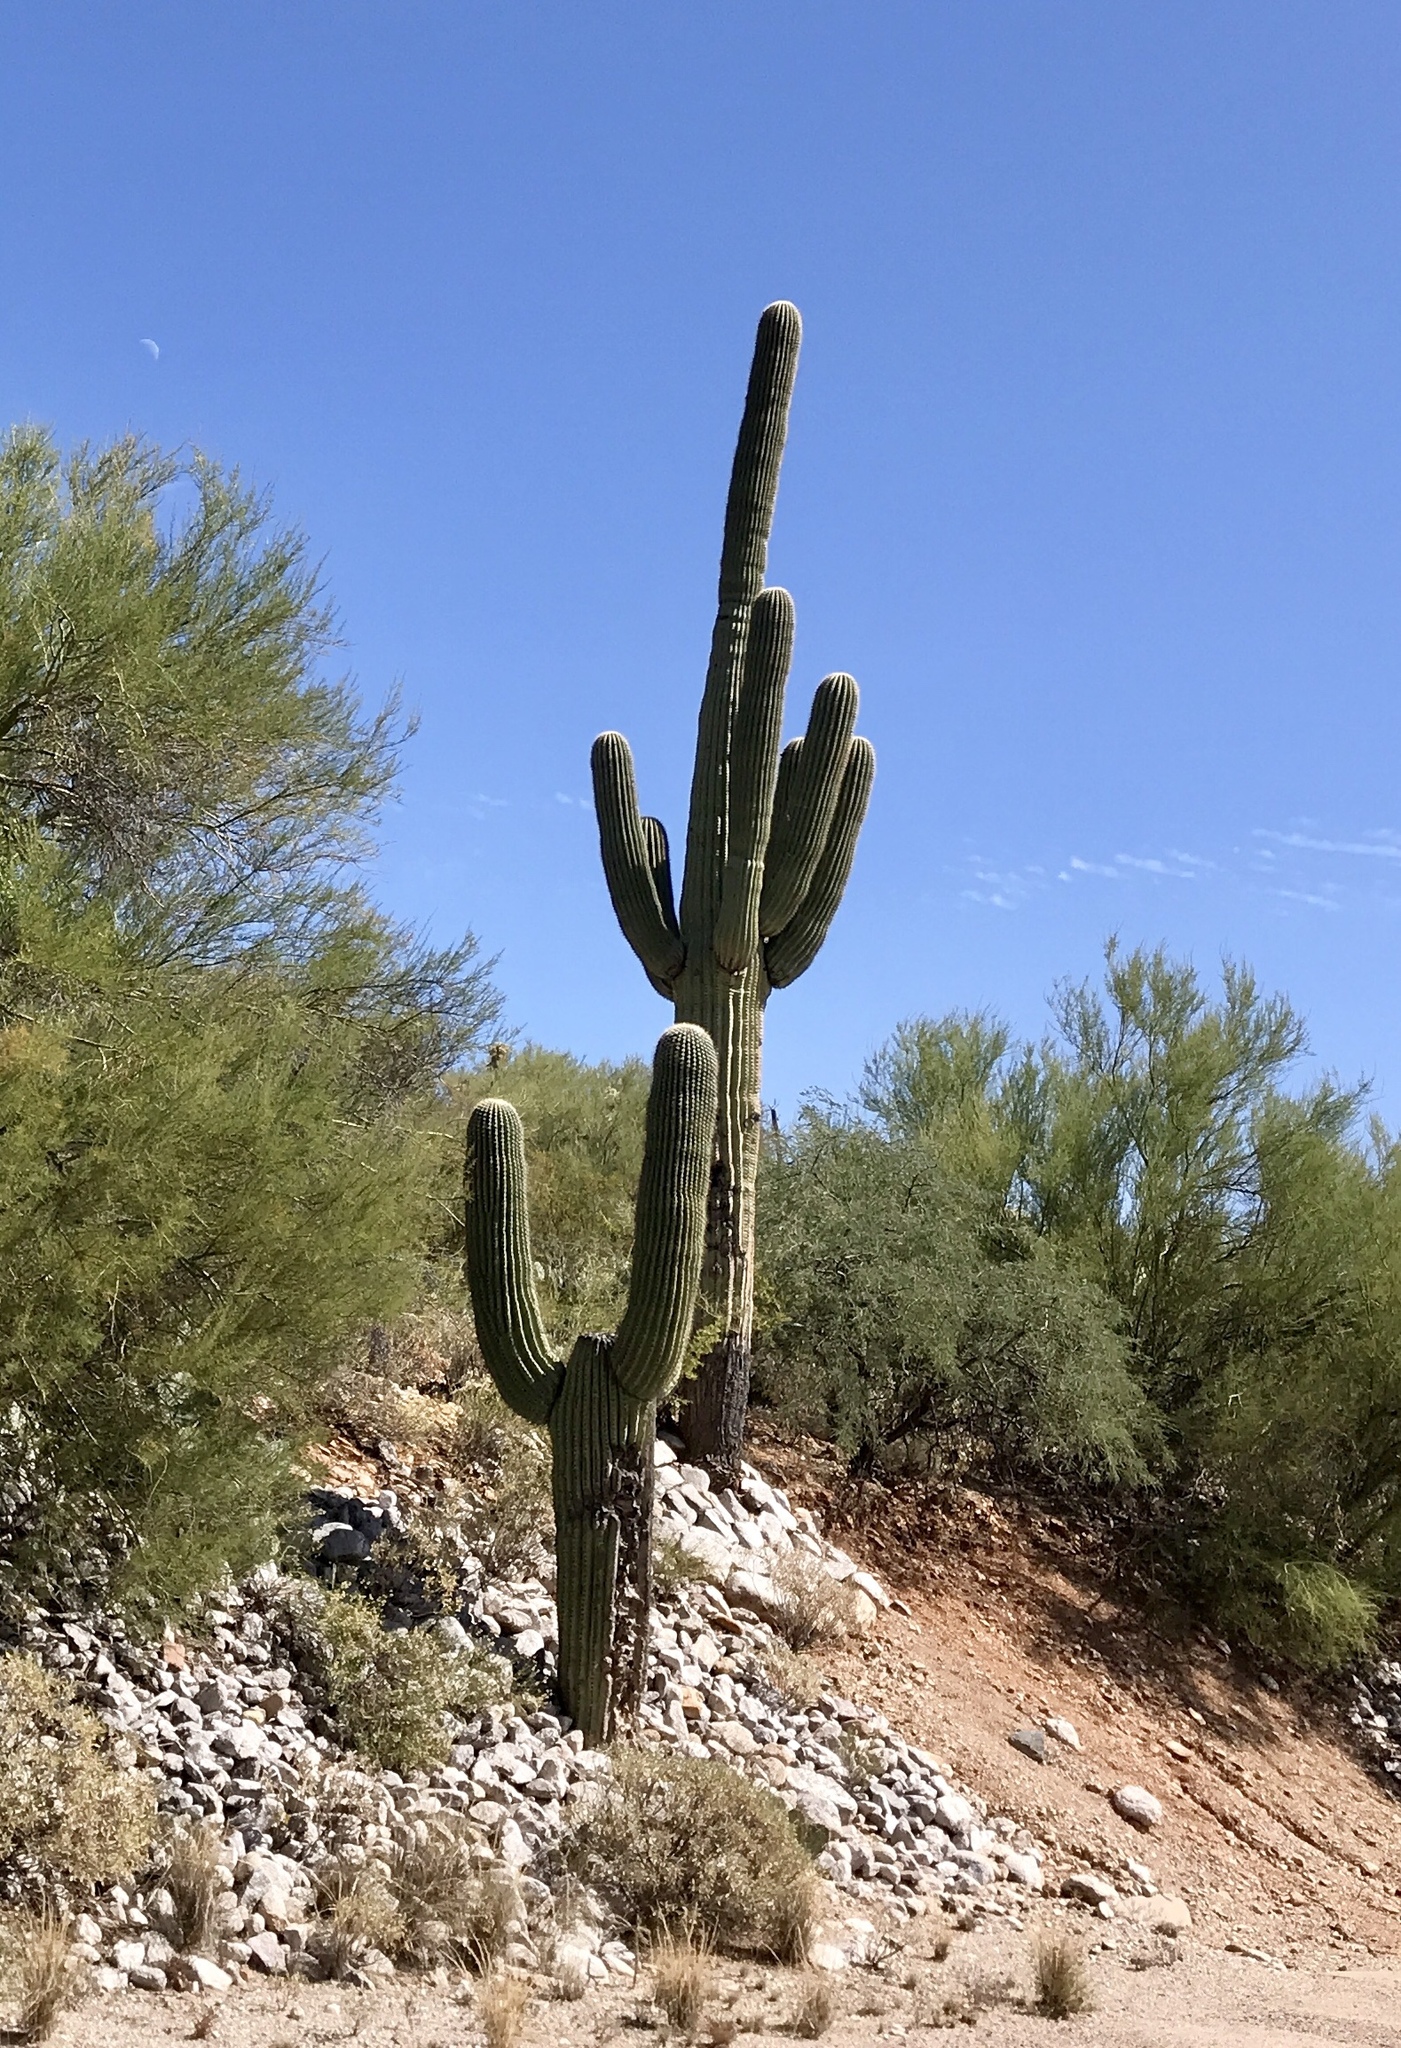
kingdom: Plantae
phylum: Tracheophyta
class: Magnoliopsida
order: Caryophyllales
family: Cactaceae
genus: Carnegiea
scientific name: Carnegiea gigantea
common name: Saguaro
